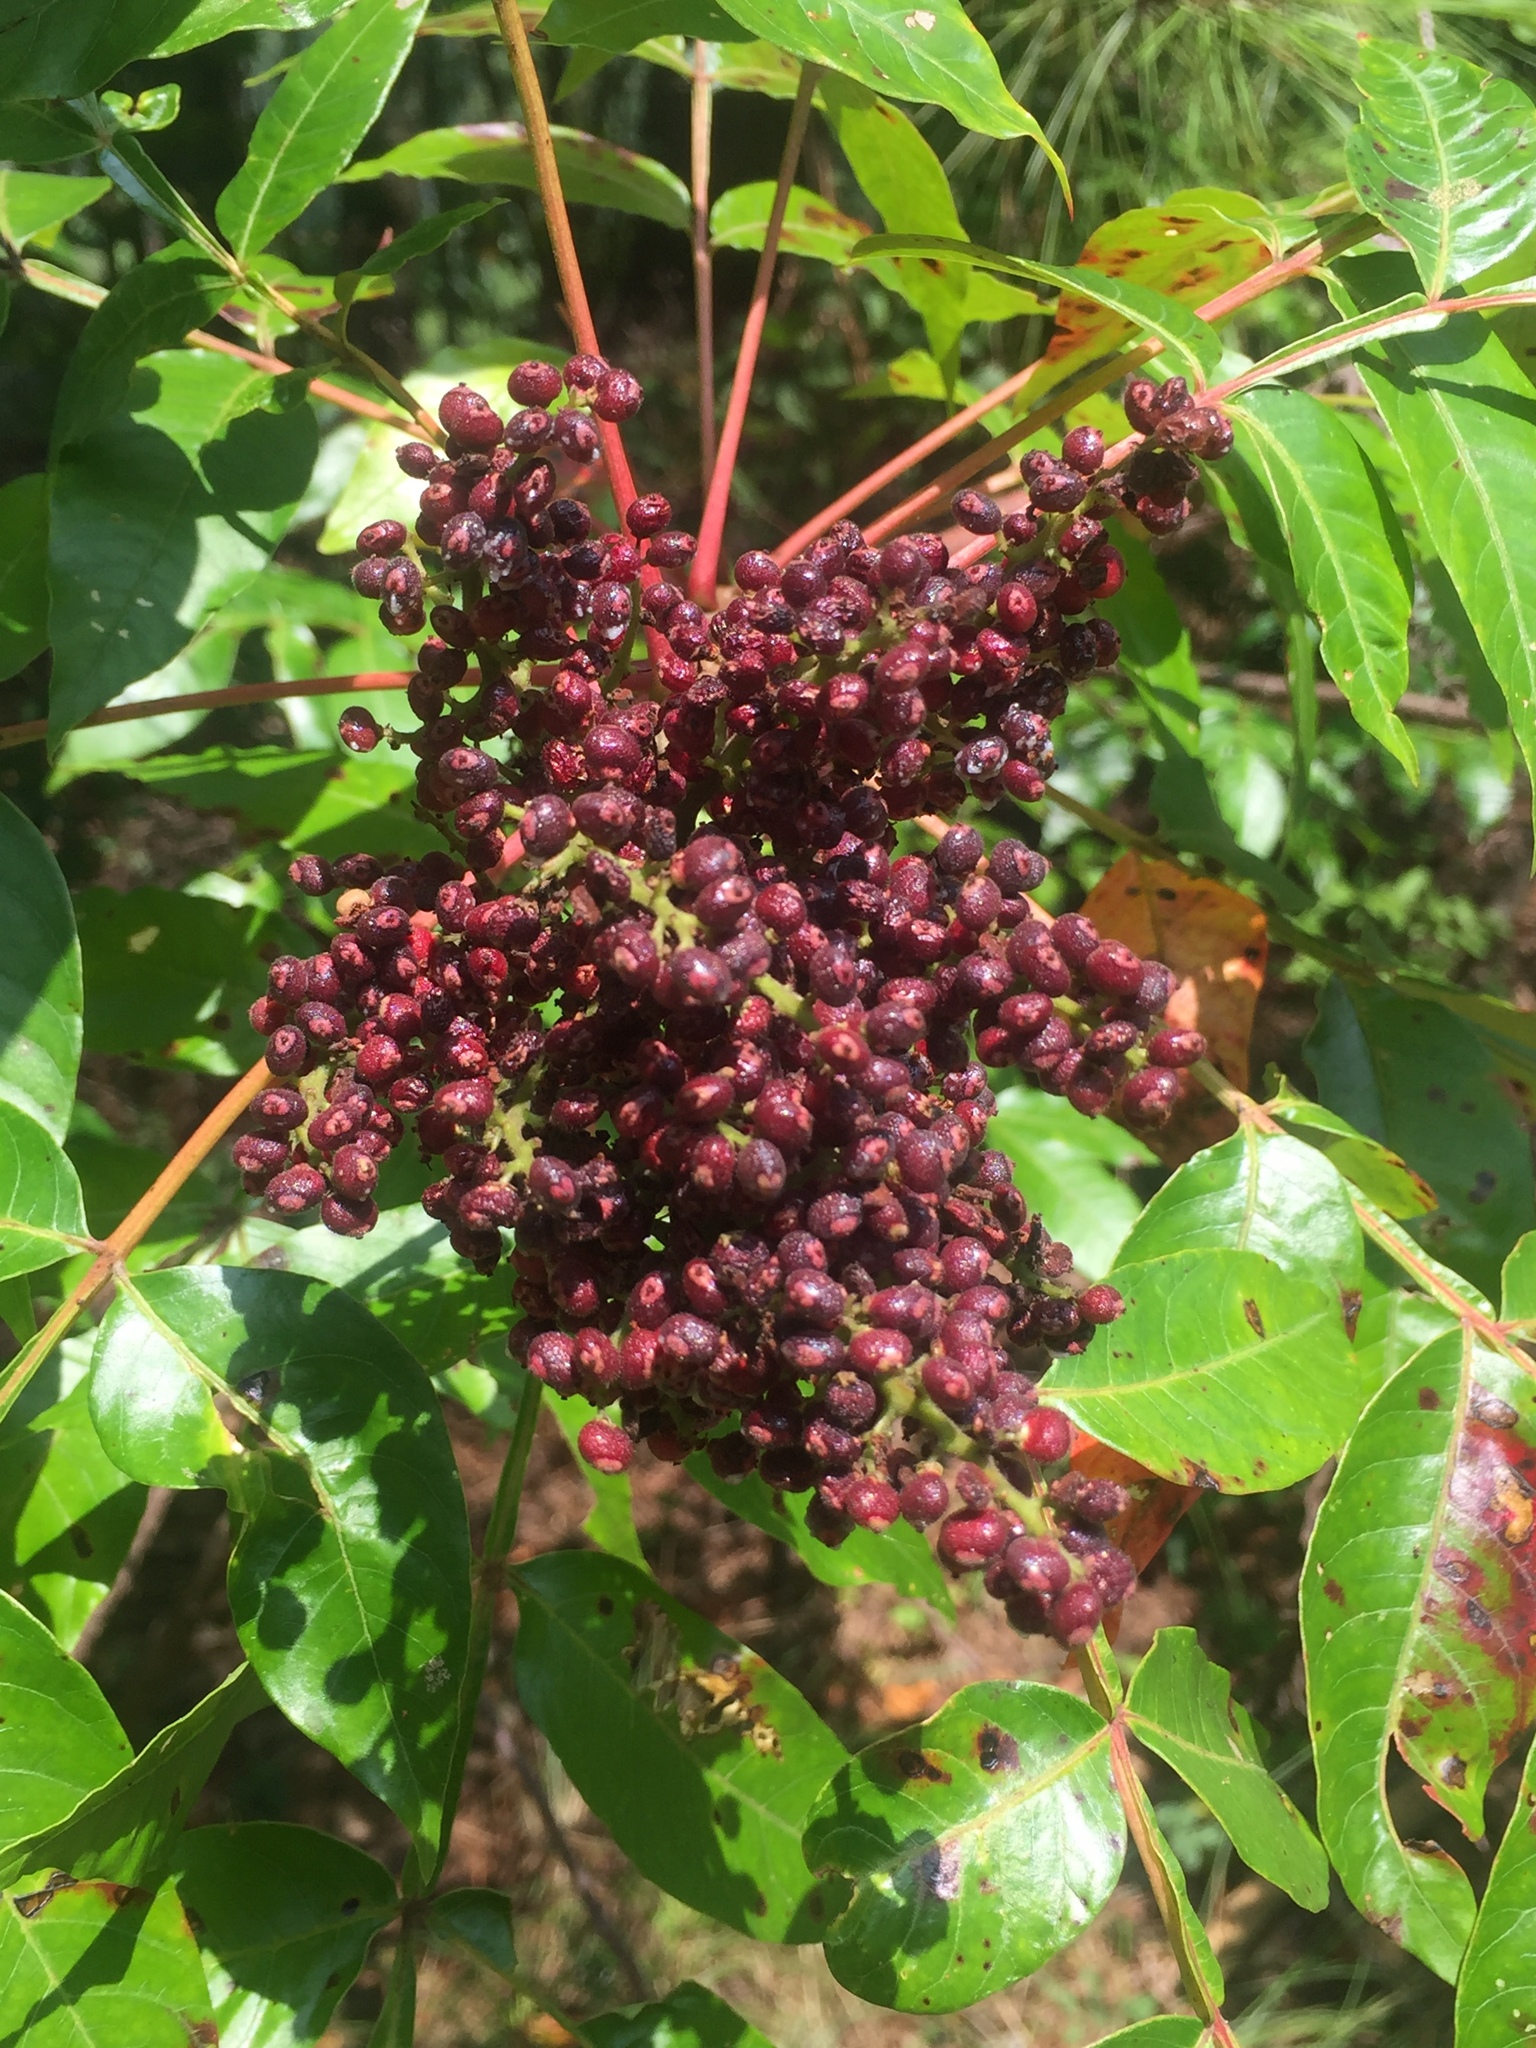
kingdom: Plantae
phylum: Tracheophyta
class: Magnoliopsida
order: Sapindales
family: Anacardiaceae
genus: Rhus
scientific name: Rhus copallina
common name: Shining sumac
